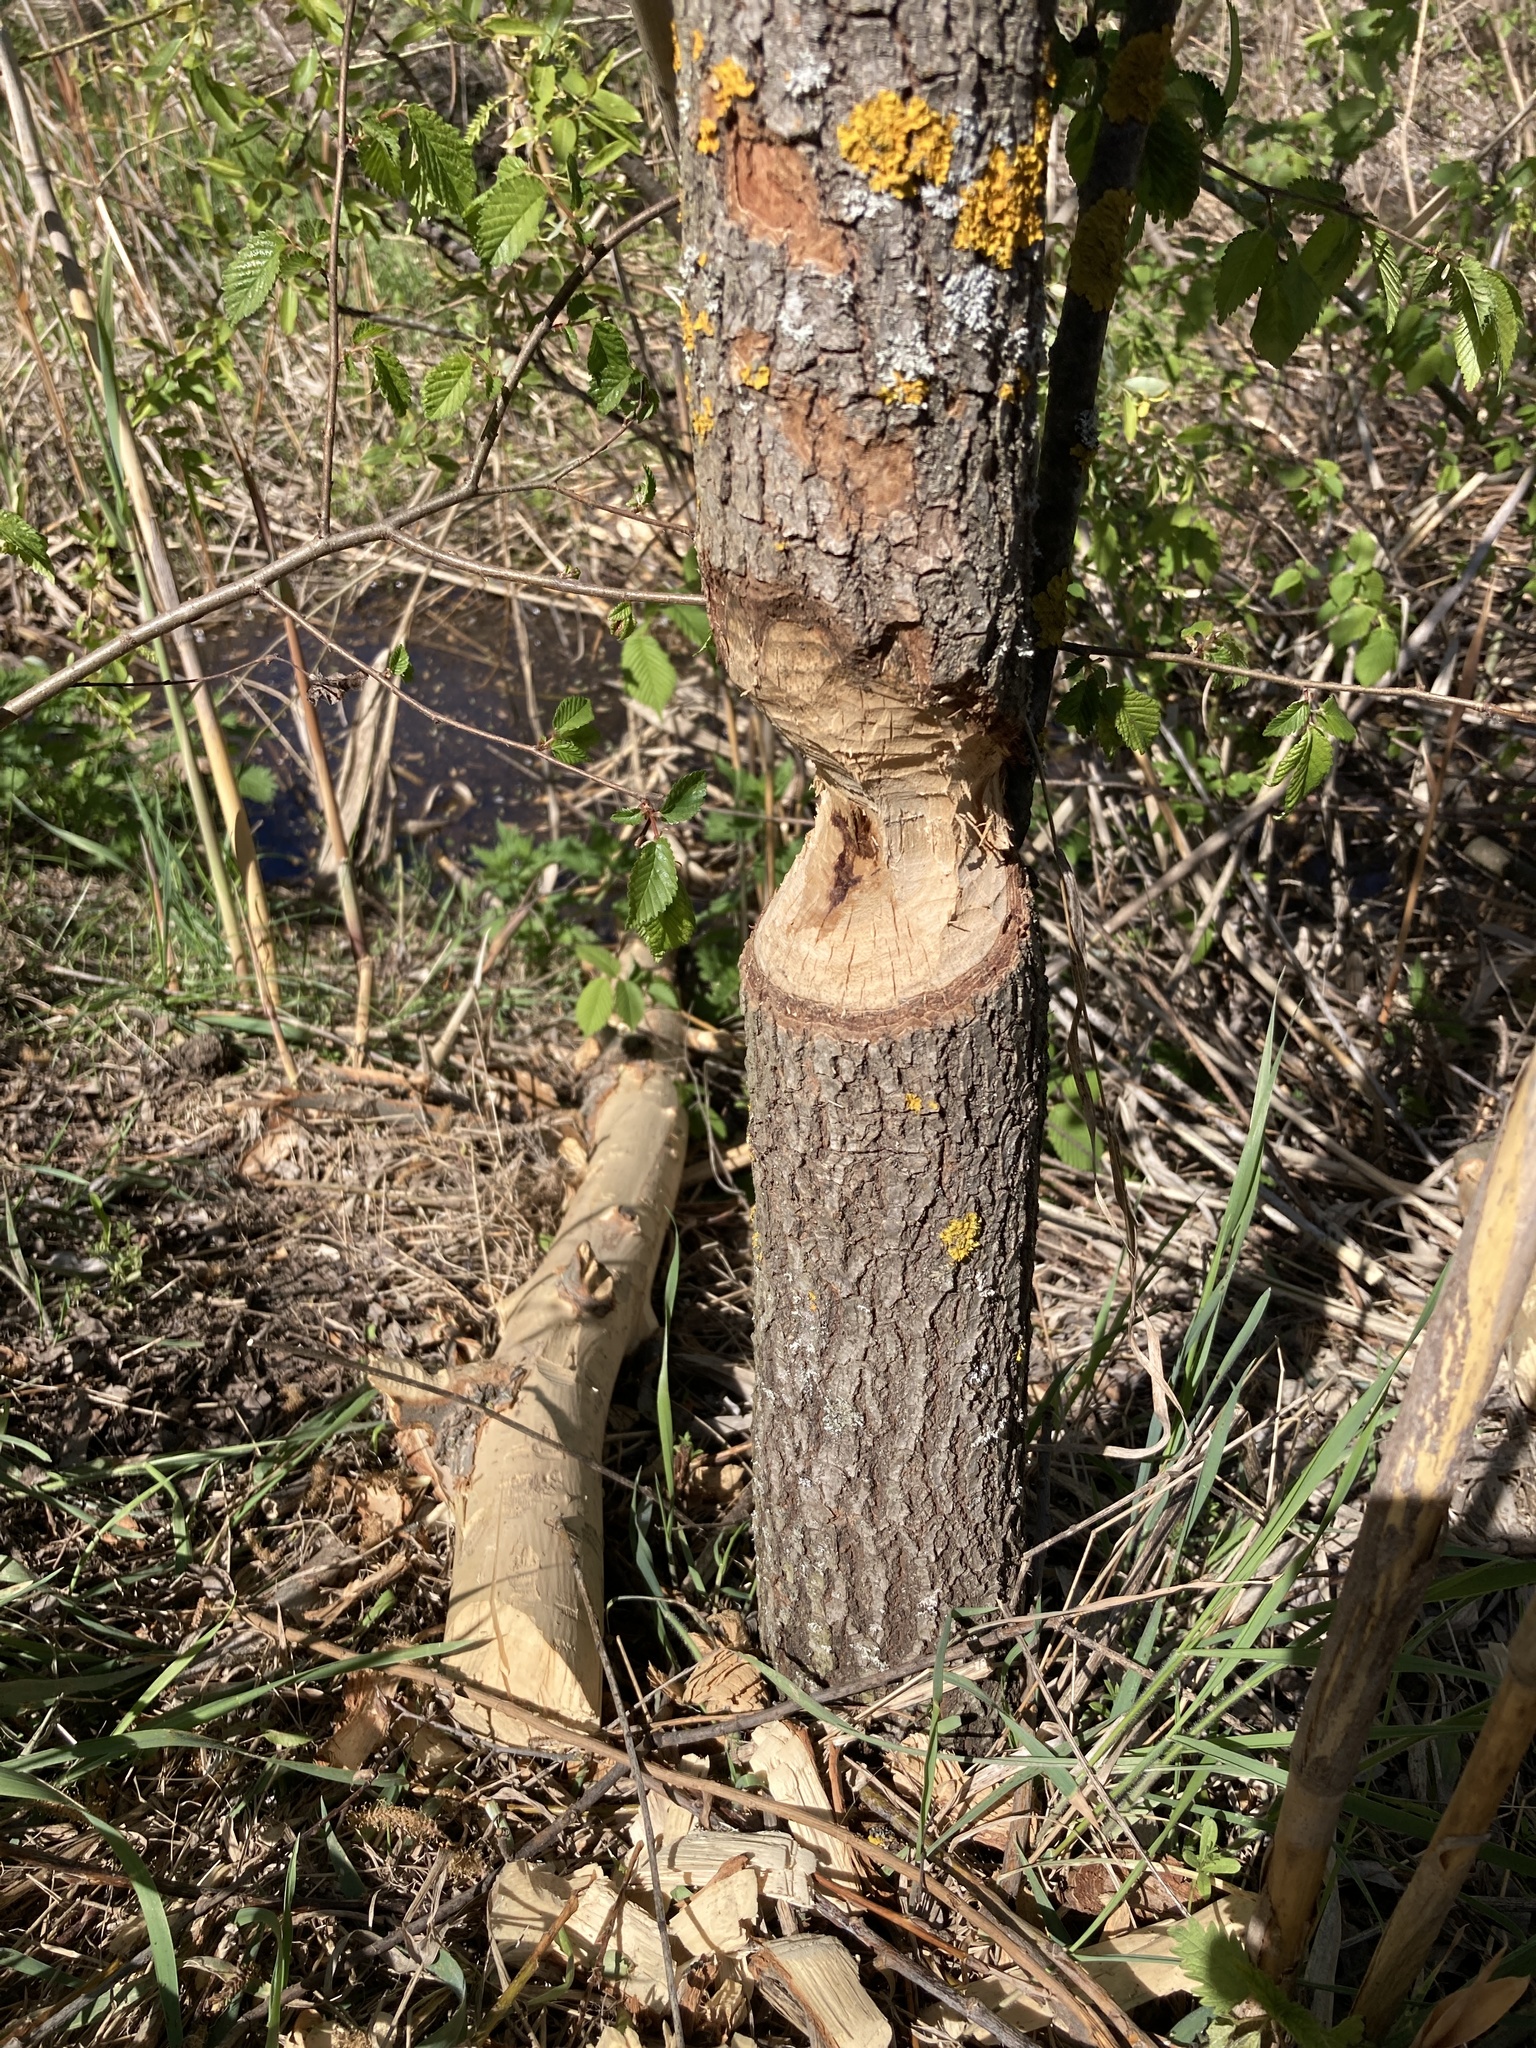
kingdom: Animalia
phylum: Chordata
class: Mammalia
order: Rodentia
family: Castoridae
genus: Castor
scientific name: Castor fiber
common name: Eurasian beaver
